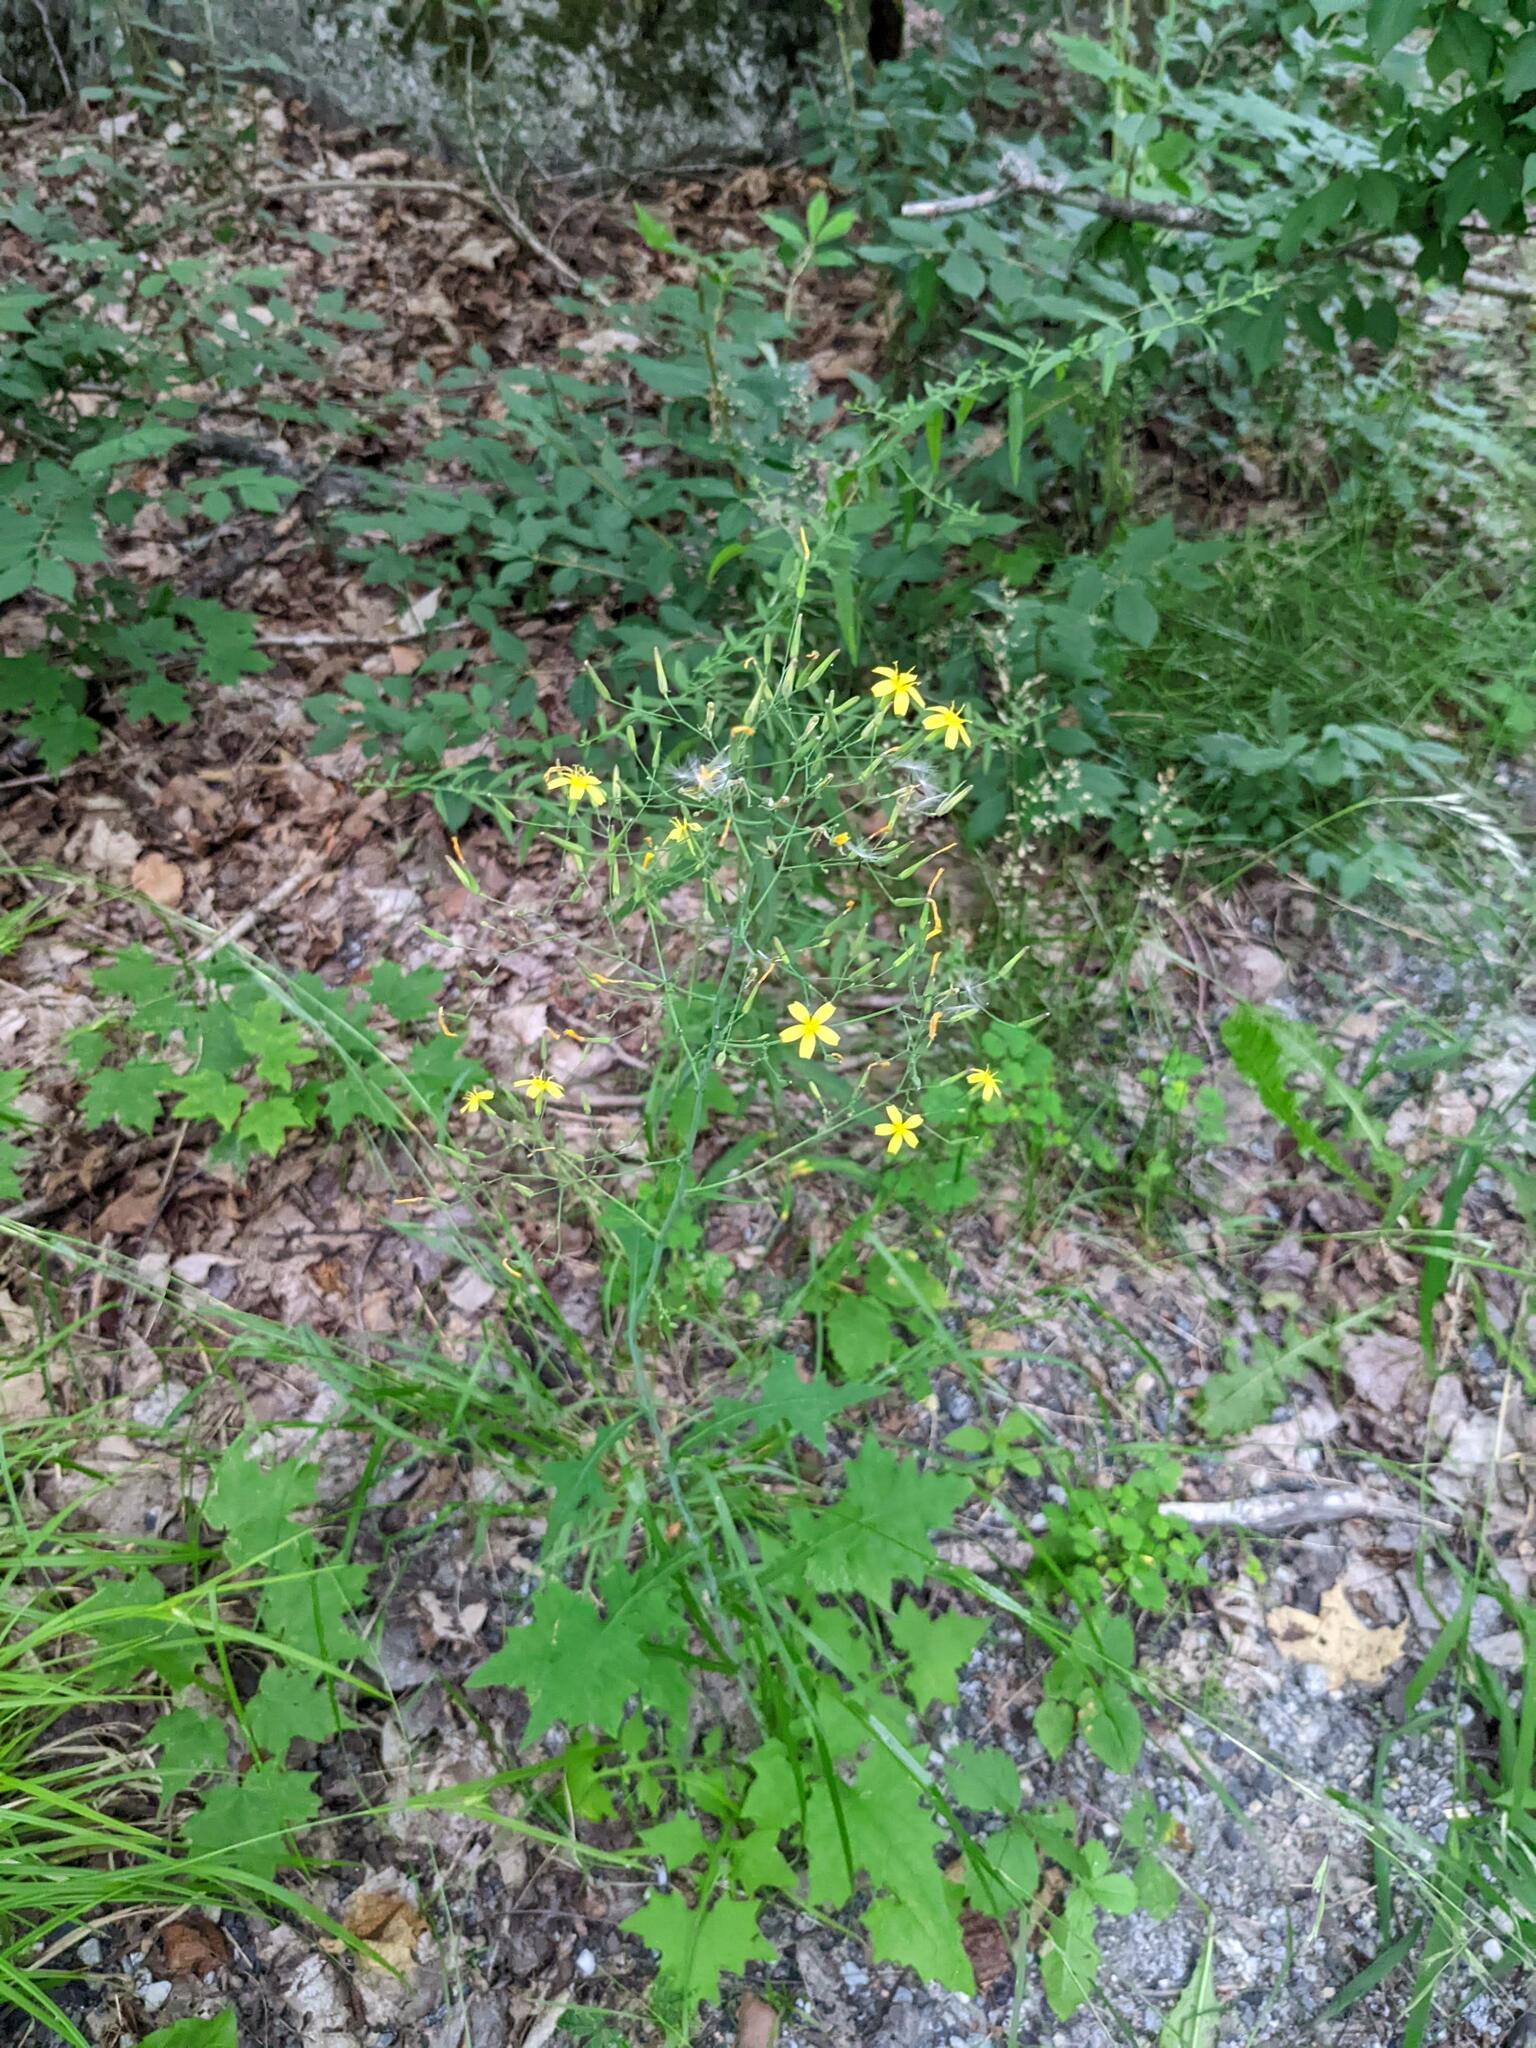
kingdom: Plantae
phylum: Tracheophyta
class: Magnoliopsida
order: Asterales
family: Asteraceae
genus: Mycelis
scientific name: Mycelis muralis
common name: Wall lettuce
